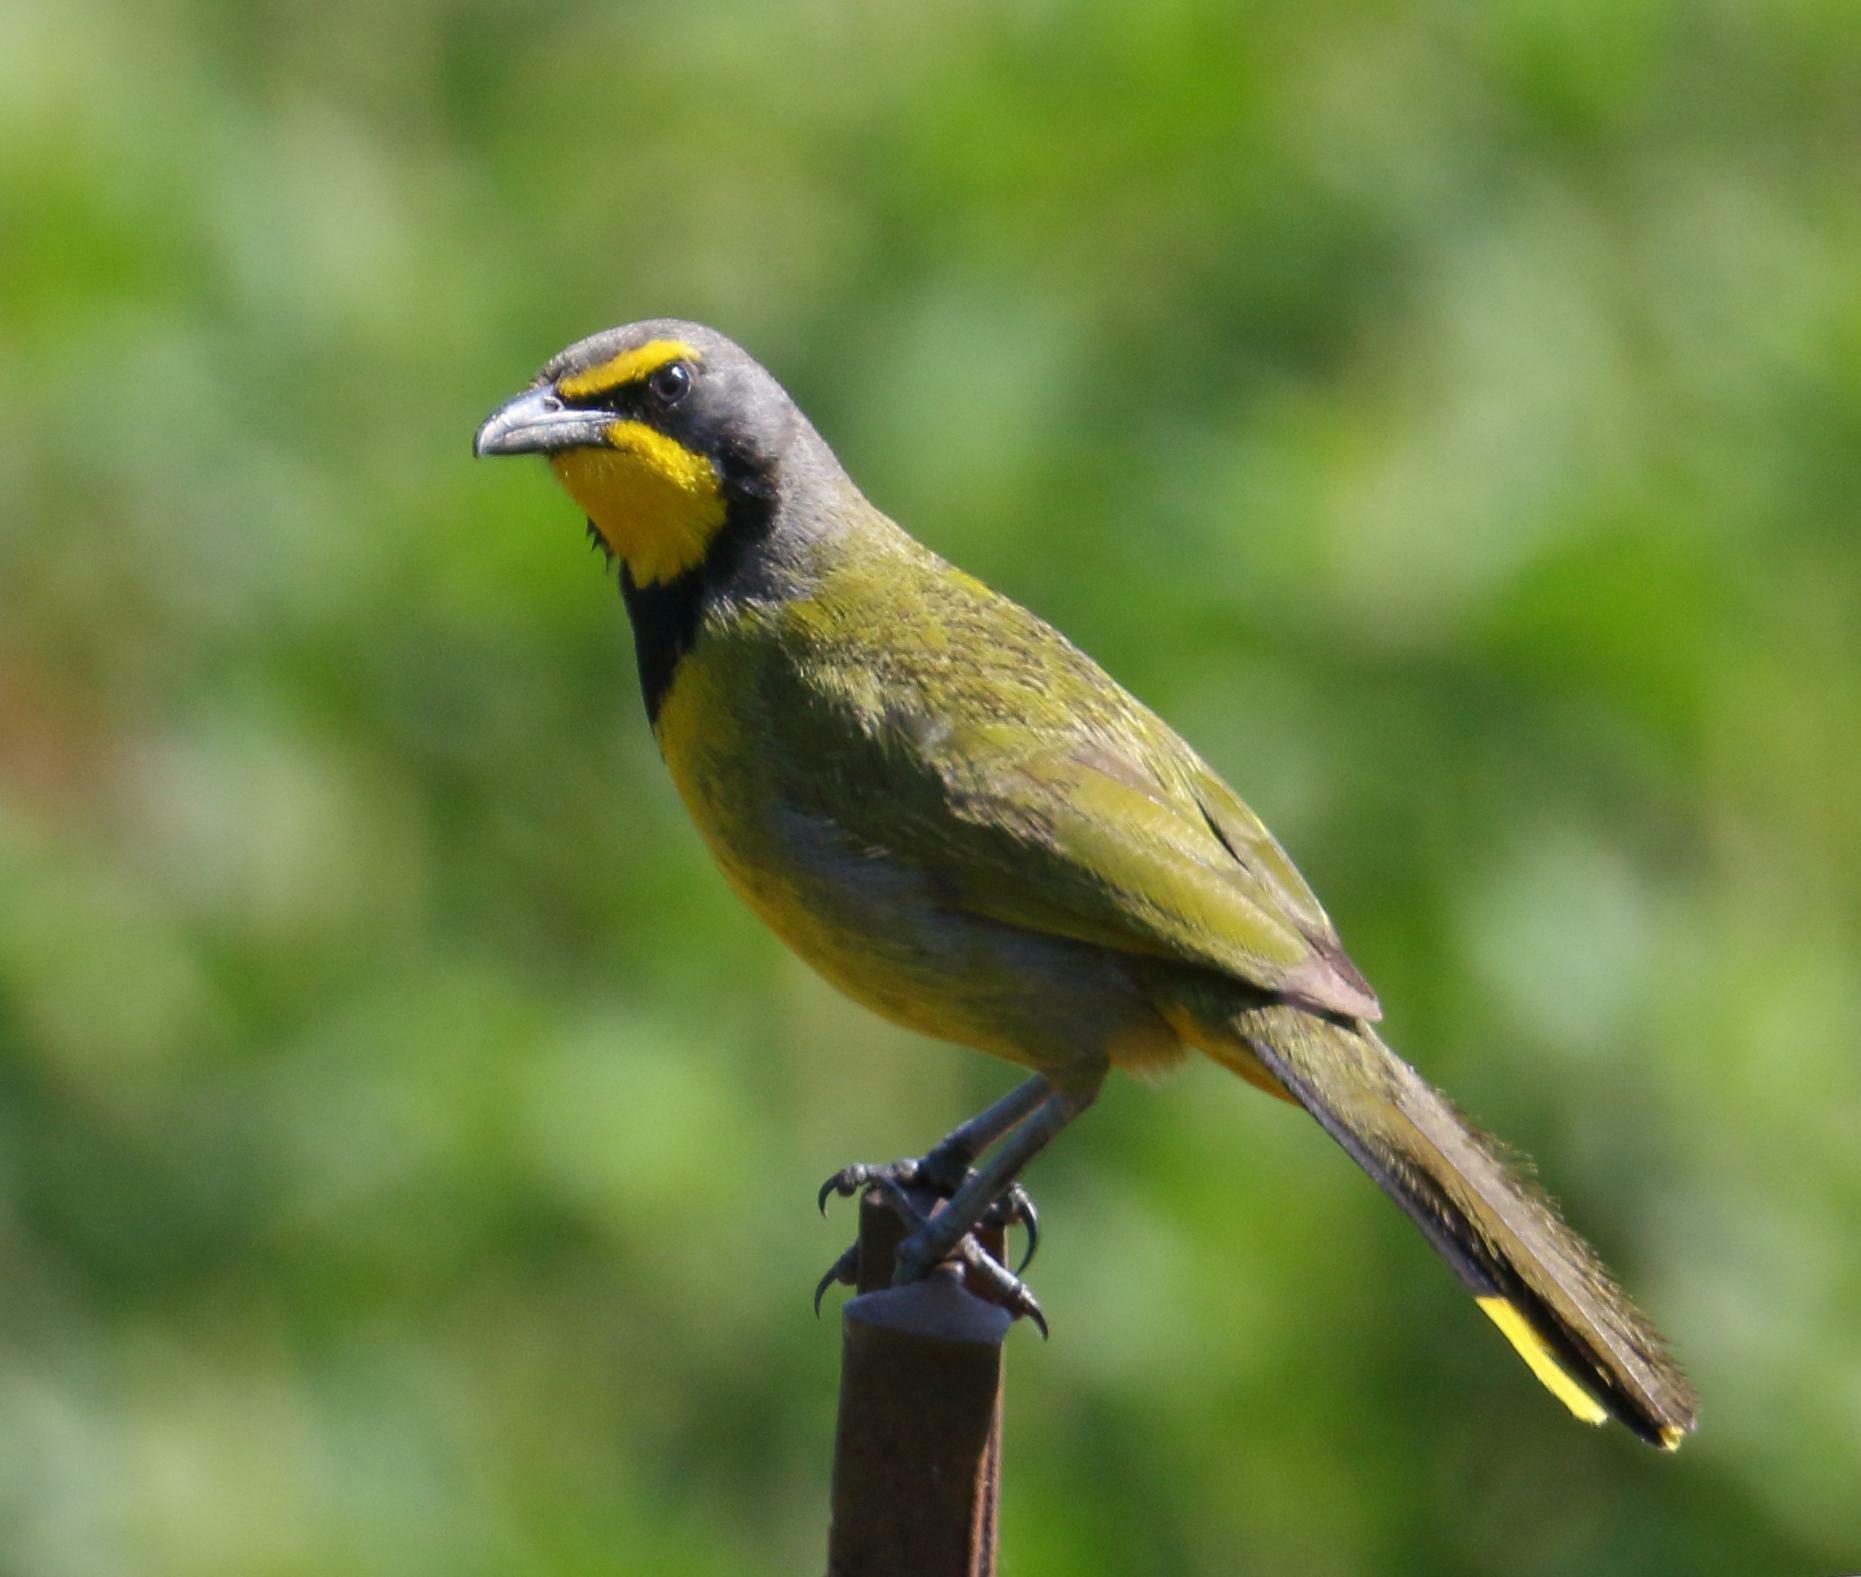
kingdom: Animalia
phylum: Chordata
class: Aves
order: Passeriformes
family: Malaconotidae
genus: Telophorus
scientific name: Telophorus zeylonus
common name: Bokmakierie
